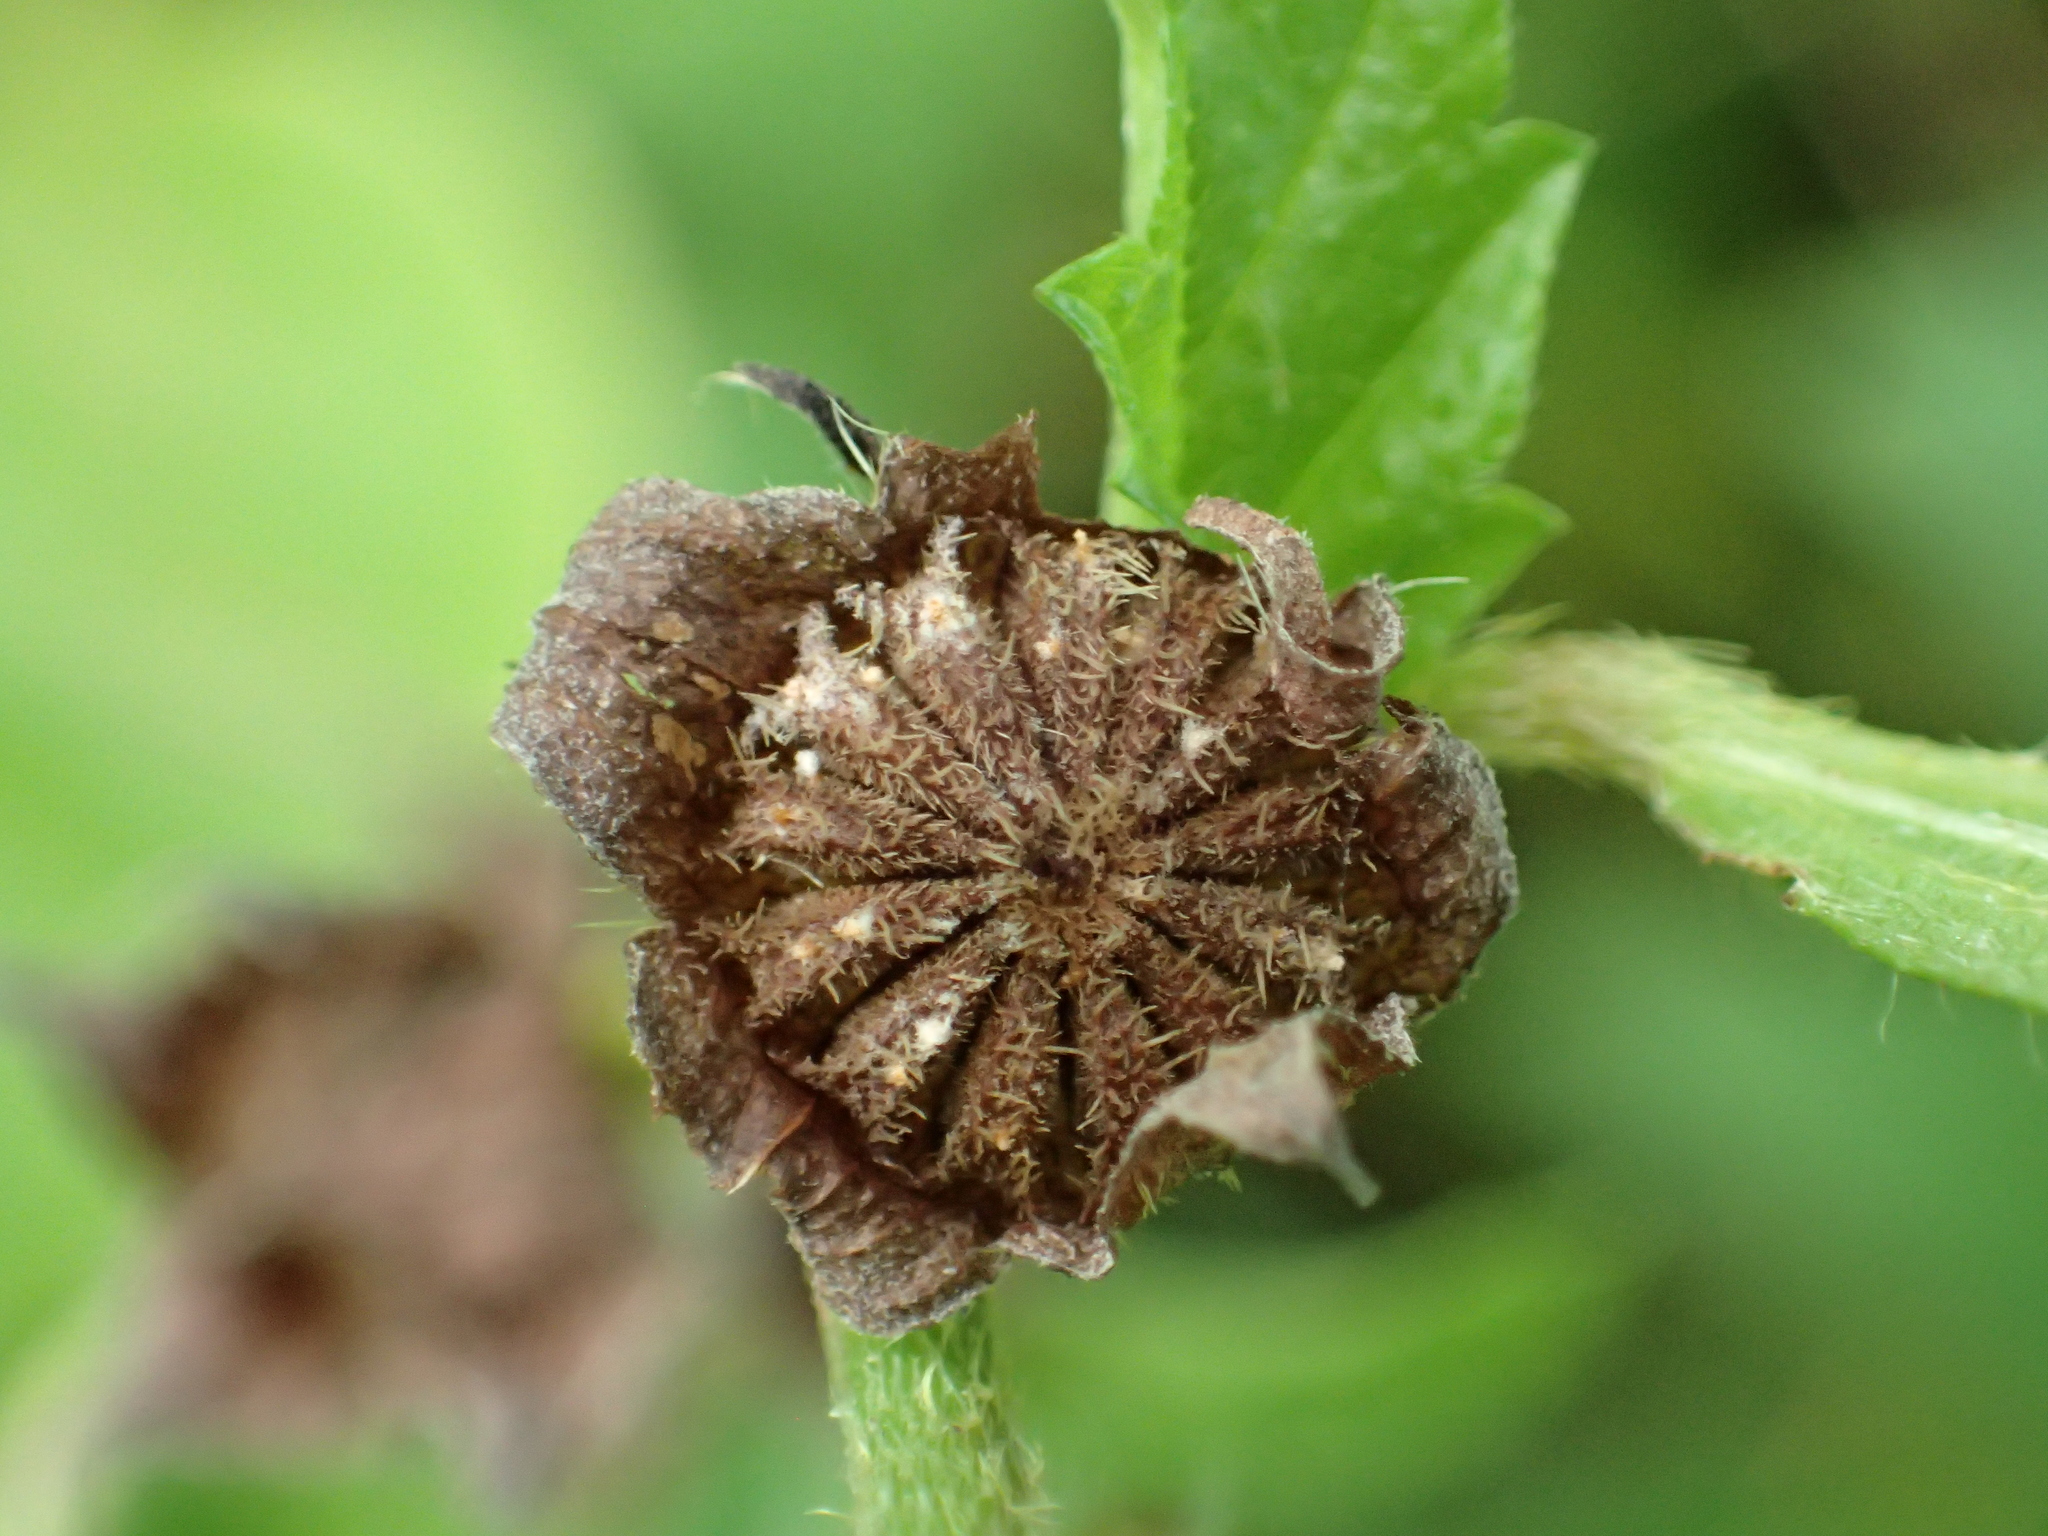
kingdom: Plantae
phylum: Tracheophyta
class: Magnoliopsida
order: Malvales
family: Malvaceae
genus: Malvastrum
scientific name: Malvastrum coromandelianum
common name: Threelobe false mallow
